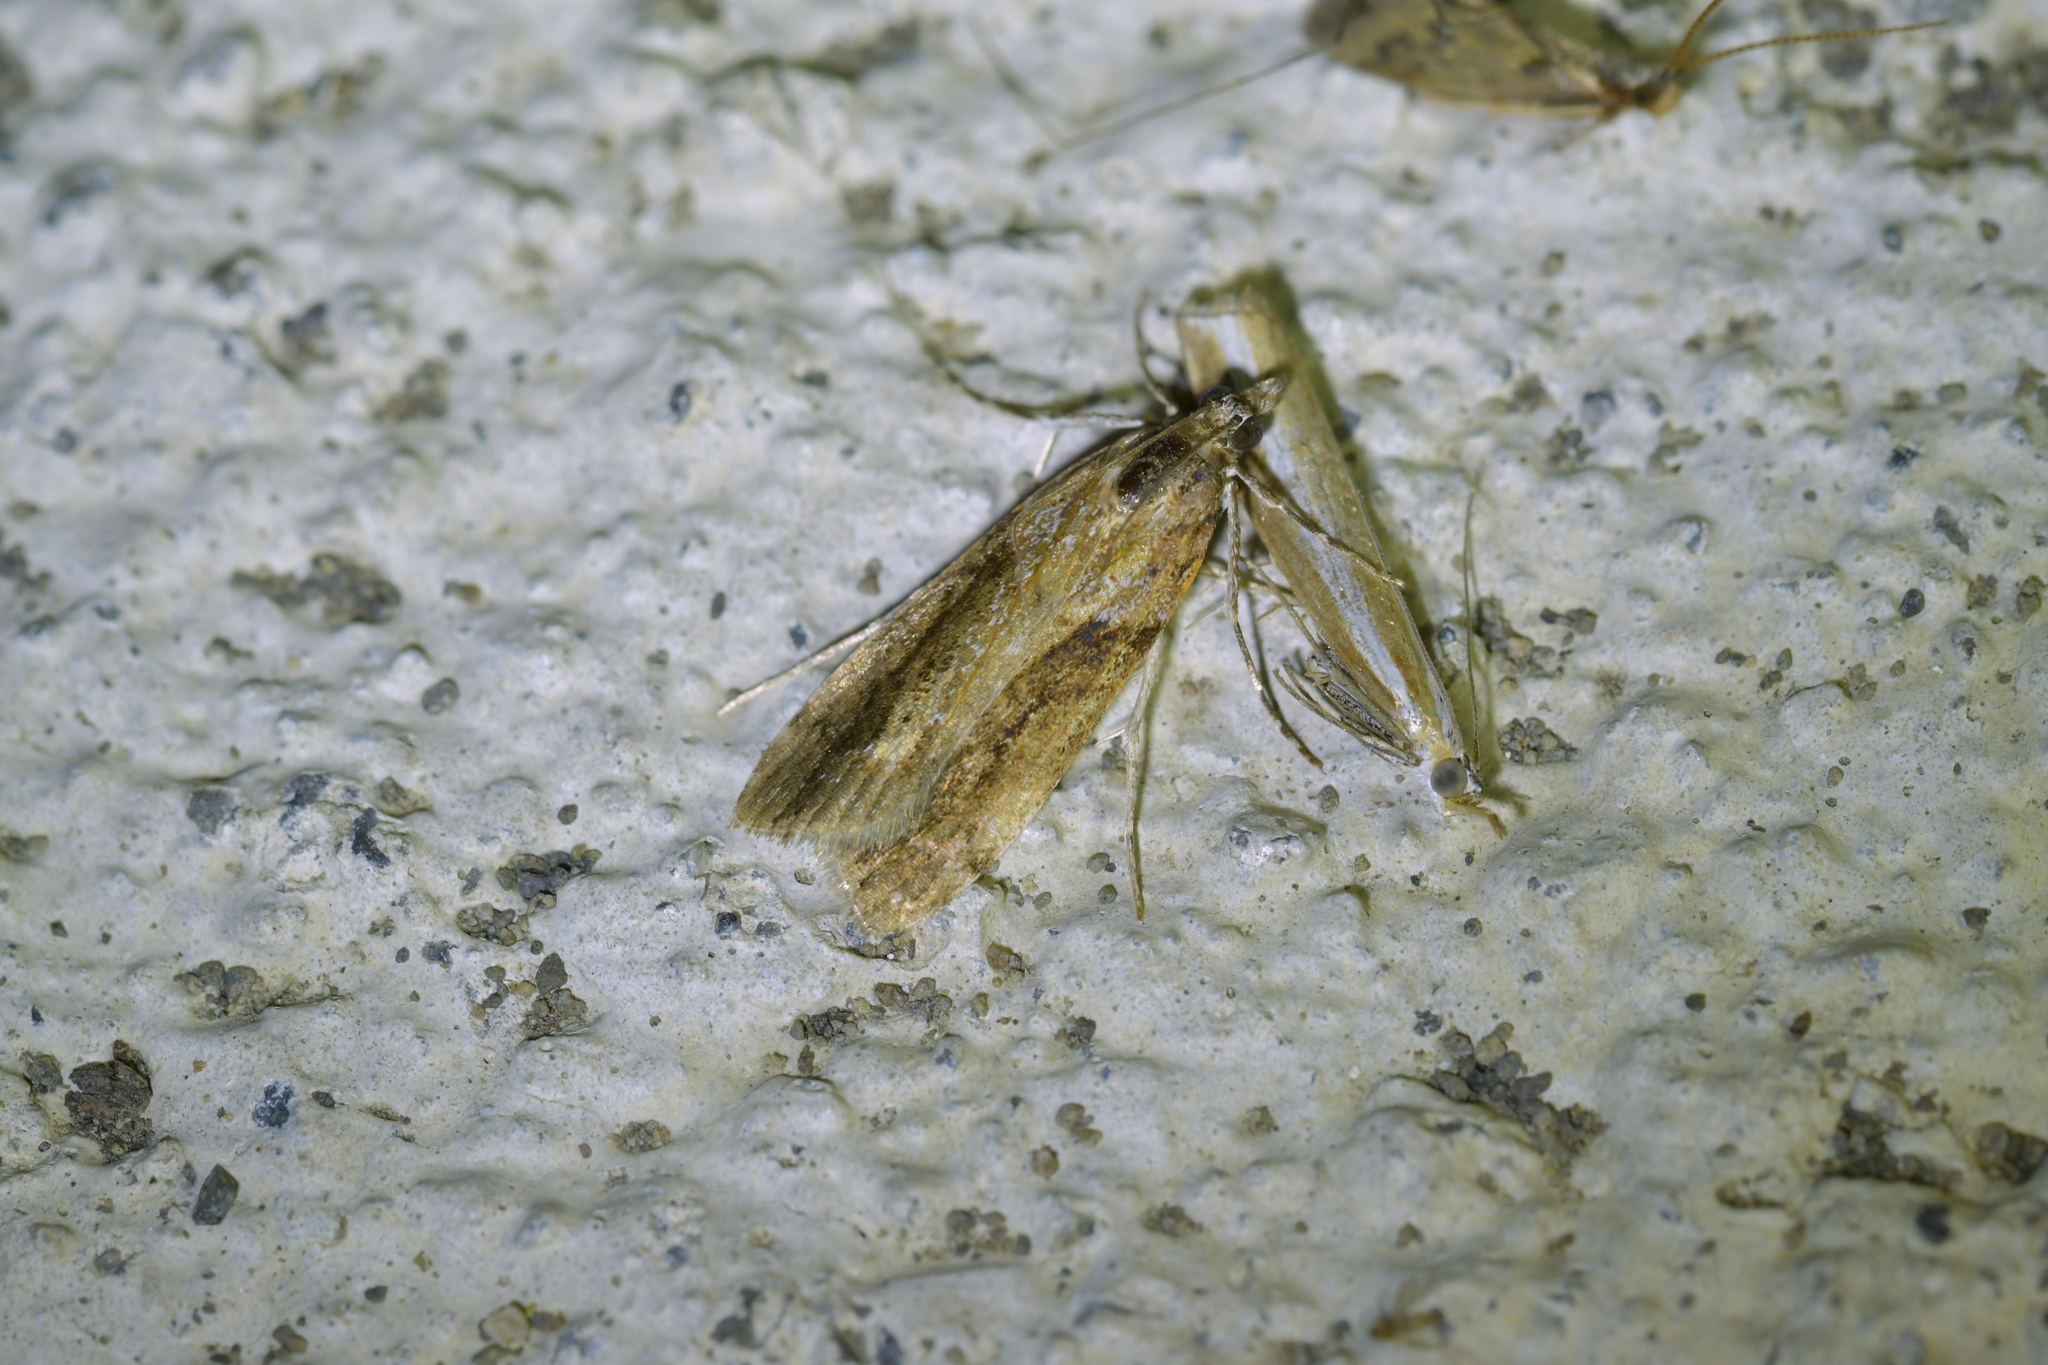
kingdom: Animalia
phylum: Arthropoda
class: Insecta
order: Lepidoptera
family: Crambidae
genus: Eudonia
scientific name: Eudonia submarginalis
